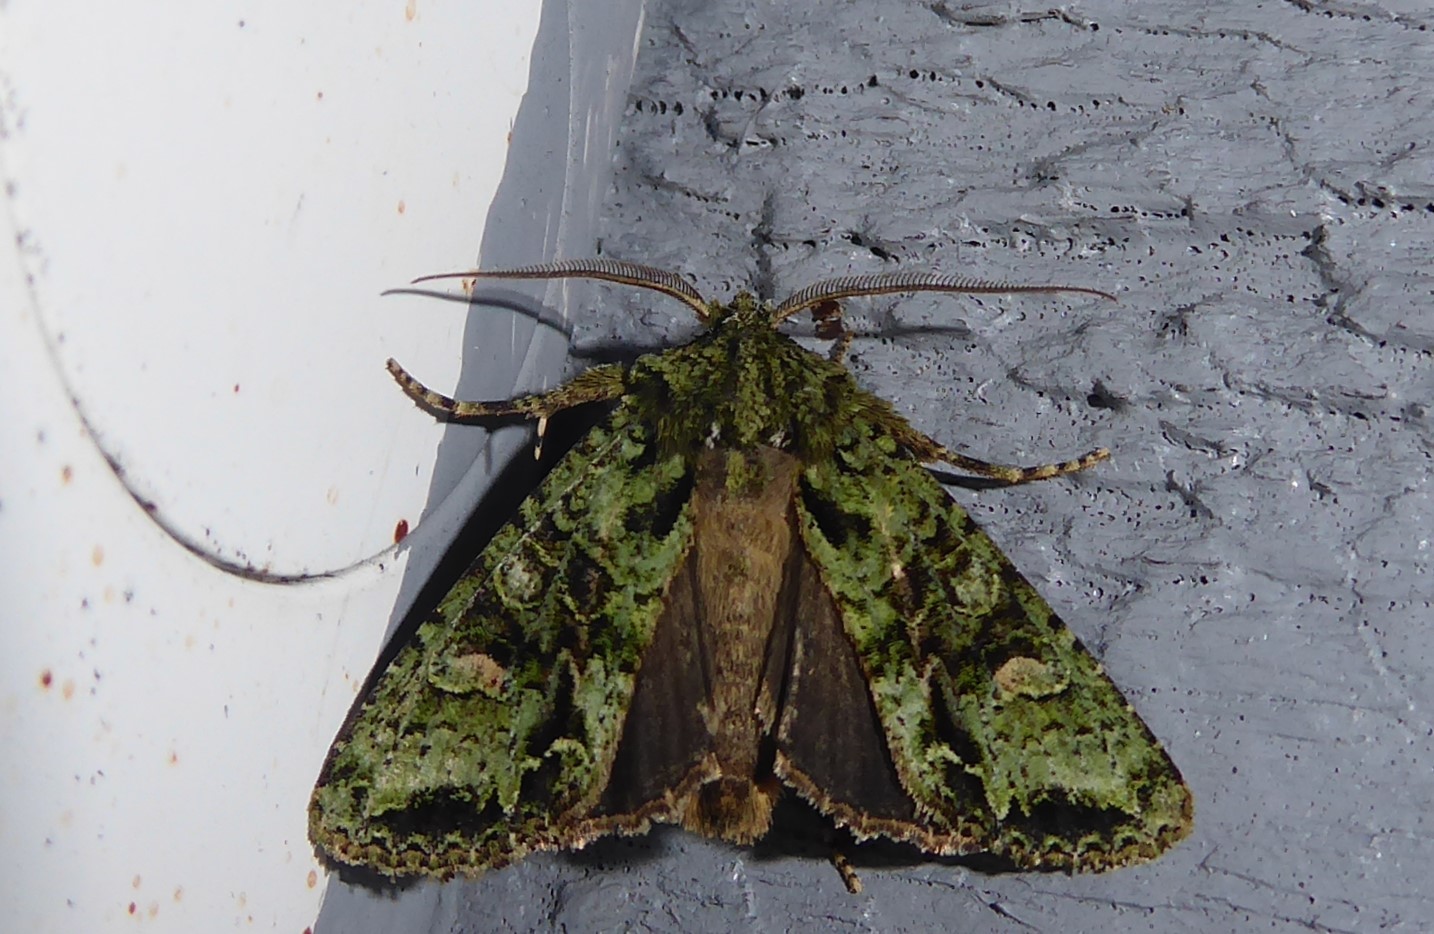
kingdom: Animalia
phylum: Arthropoda
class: Insecta
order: Lepidoptera
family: Noctuidae
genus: Ichneutica
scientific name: Ichneutica
